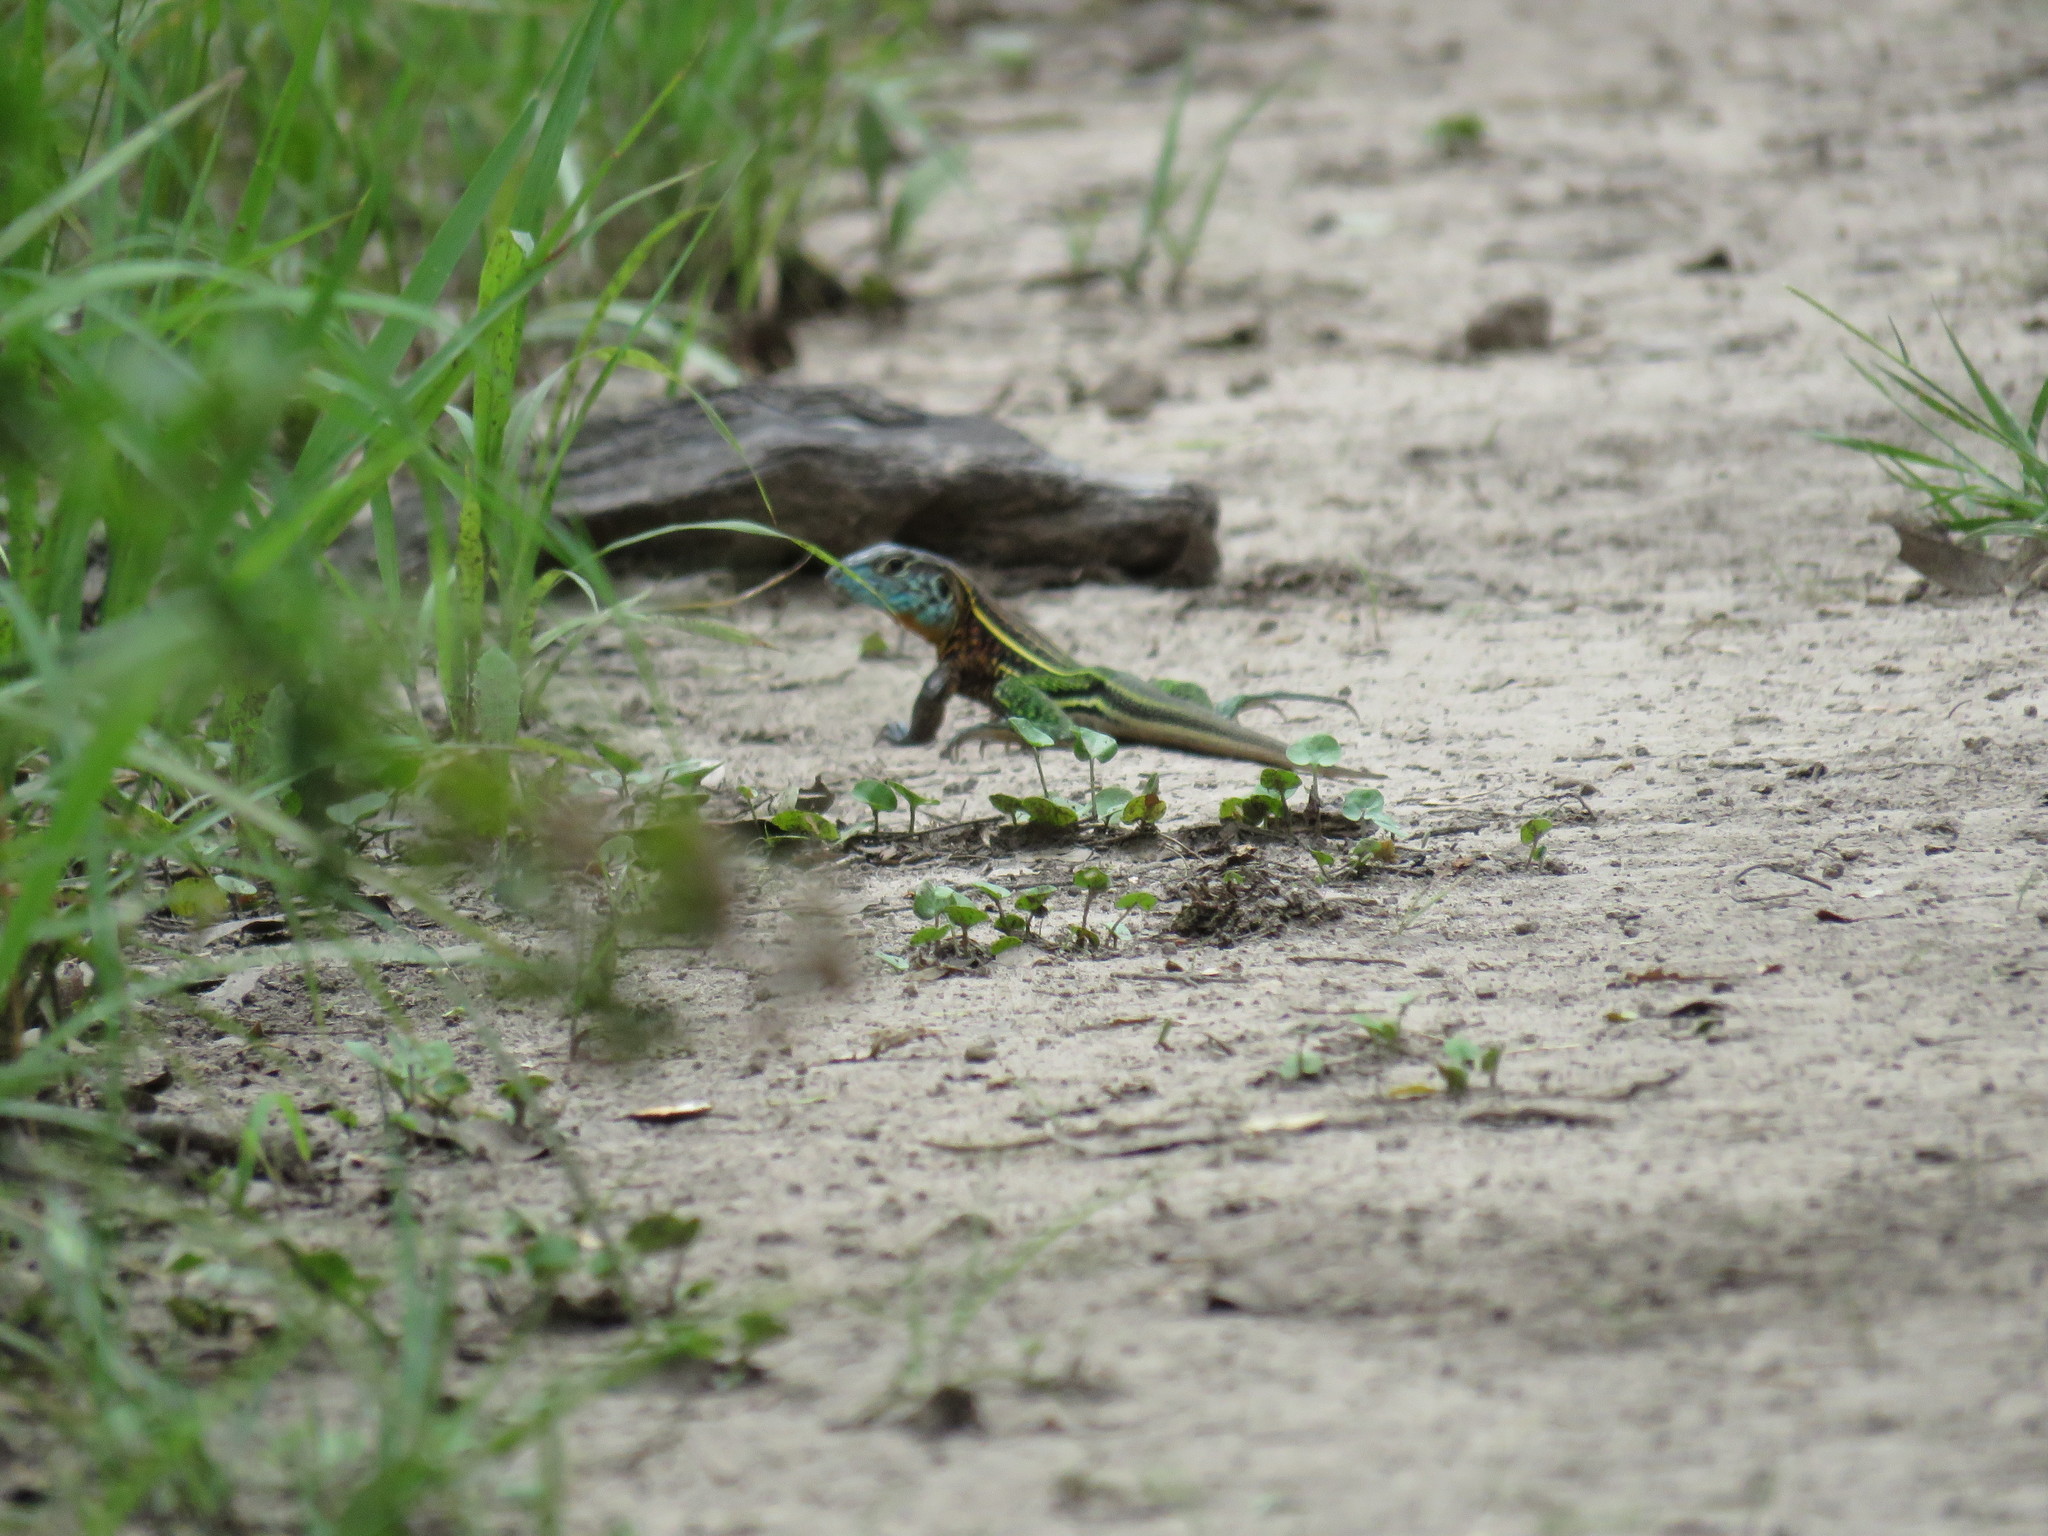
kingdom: Animalia
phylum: Chordata
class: Squamata
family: Teiidae
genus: Teius
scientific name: Teius teyou
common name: Four-toed tegu
